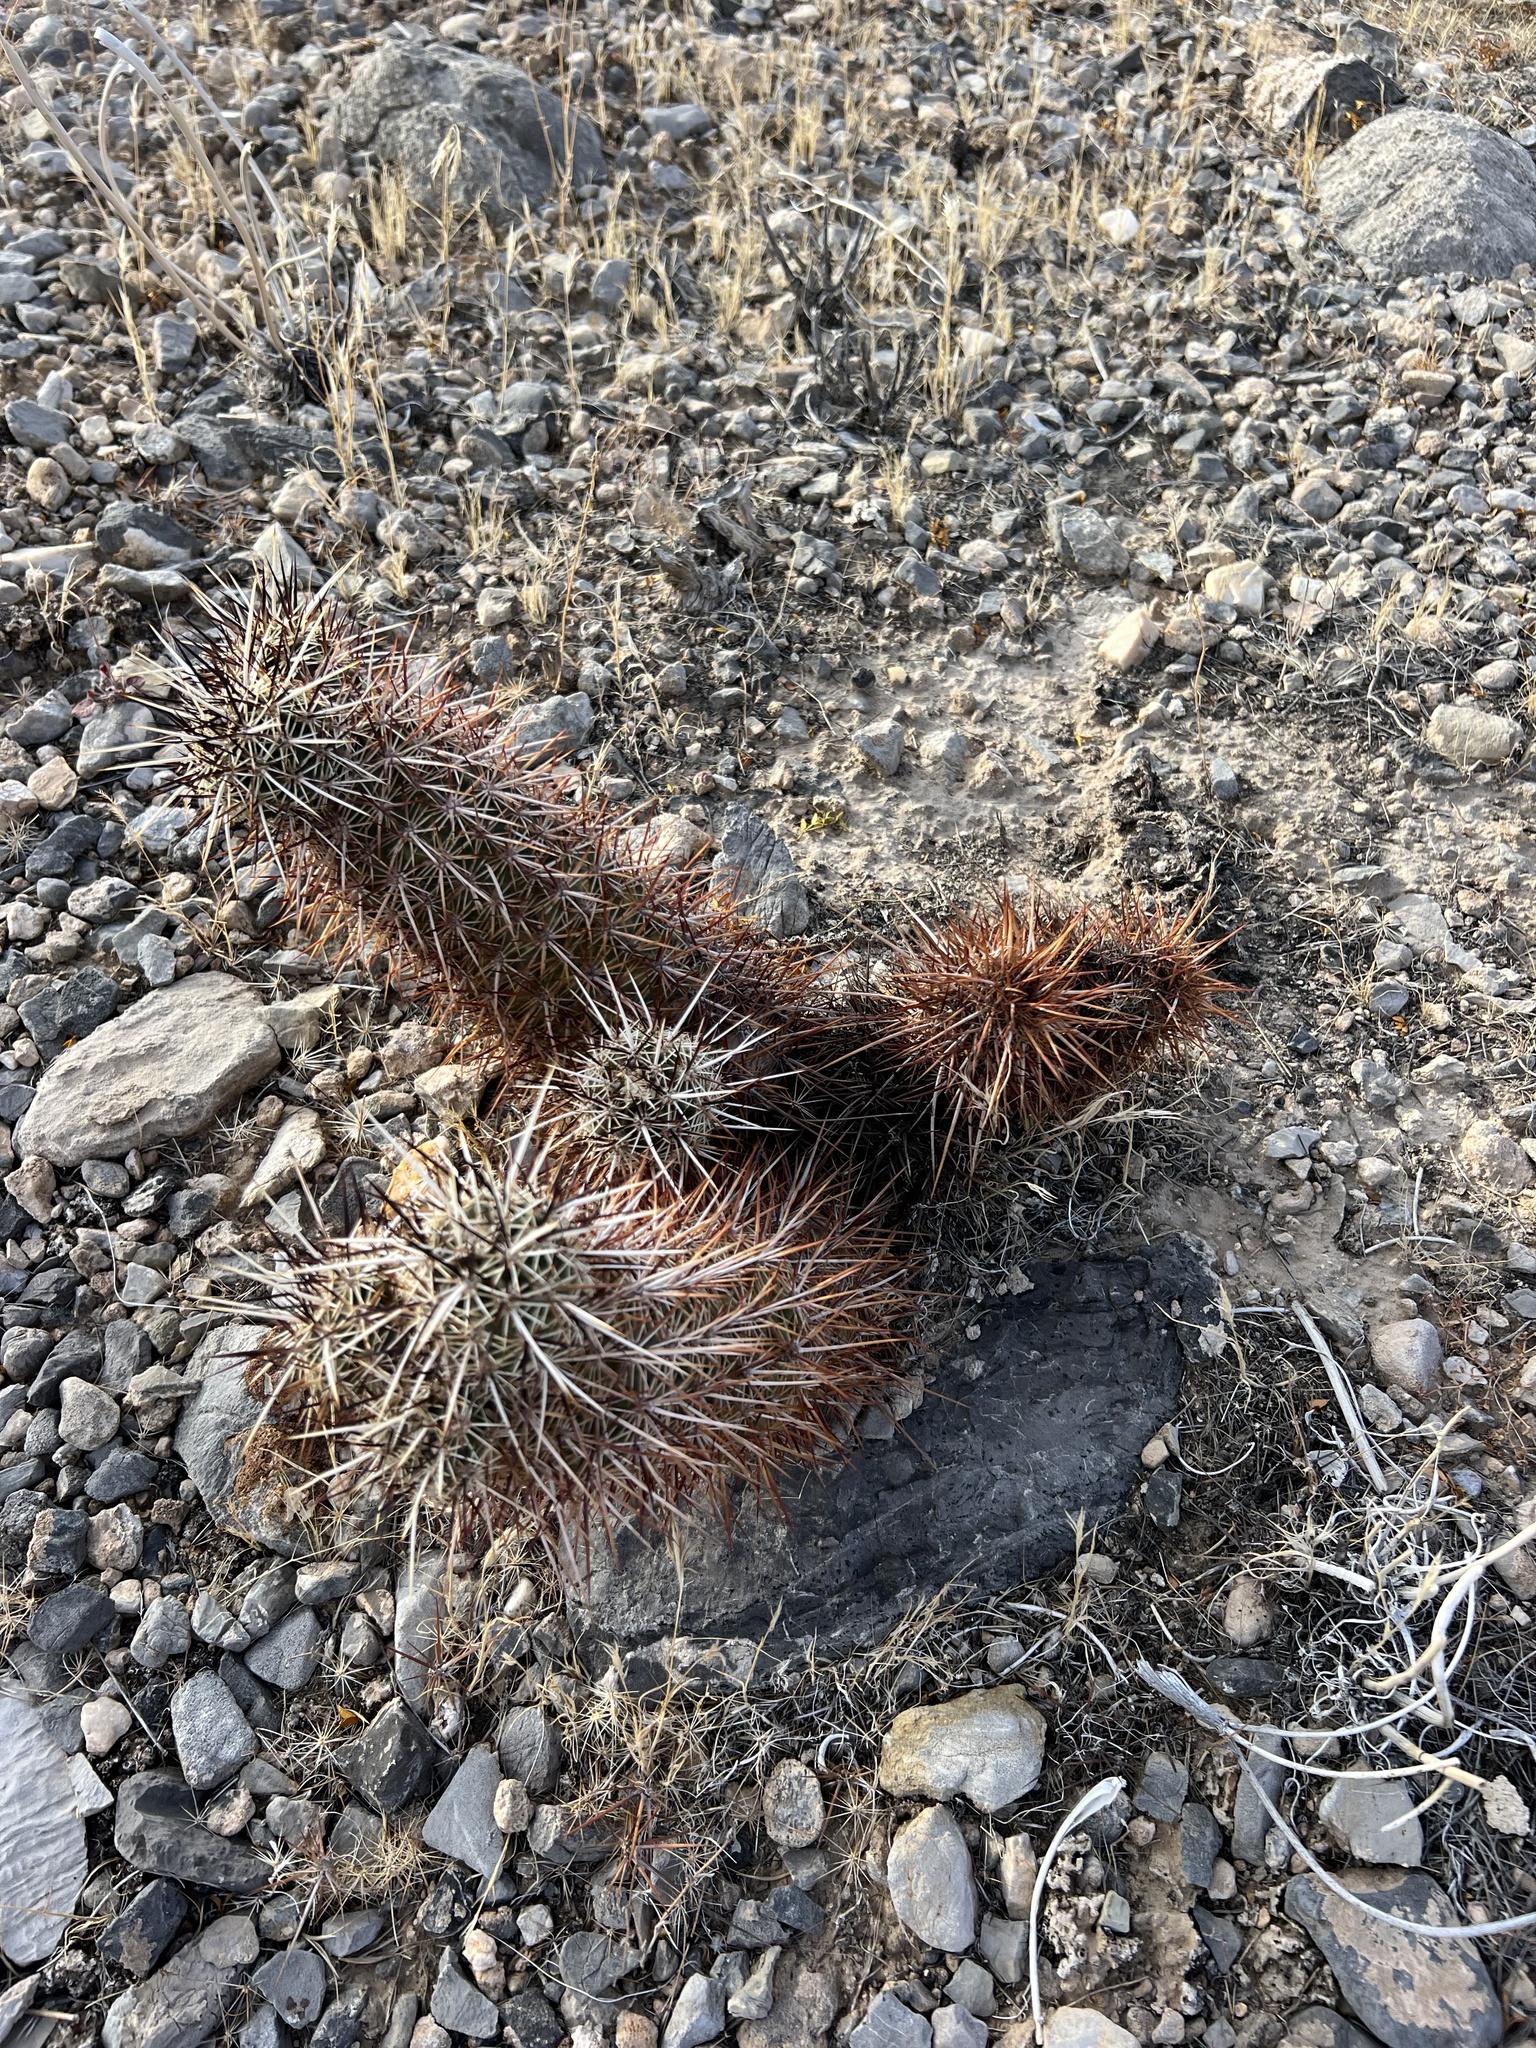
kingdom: Plantae
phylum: Tracheophyta
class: Magnoliopsida
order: Caryophyllales
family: Cactaceae
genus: Echinocereus
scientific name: Echinocereus engelmannii
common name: Engelmann's hedgehog cactus
